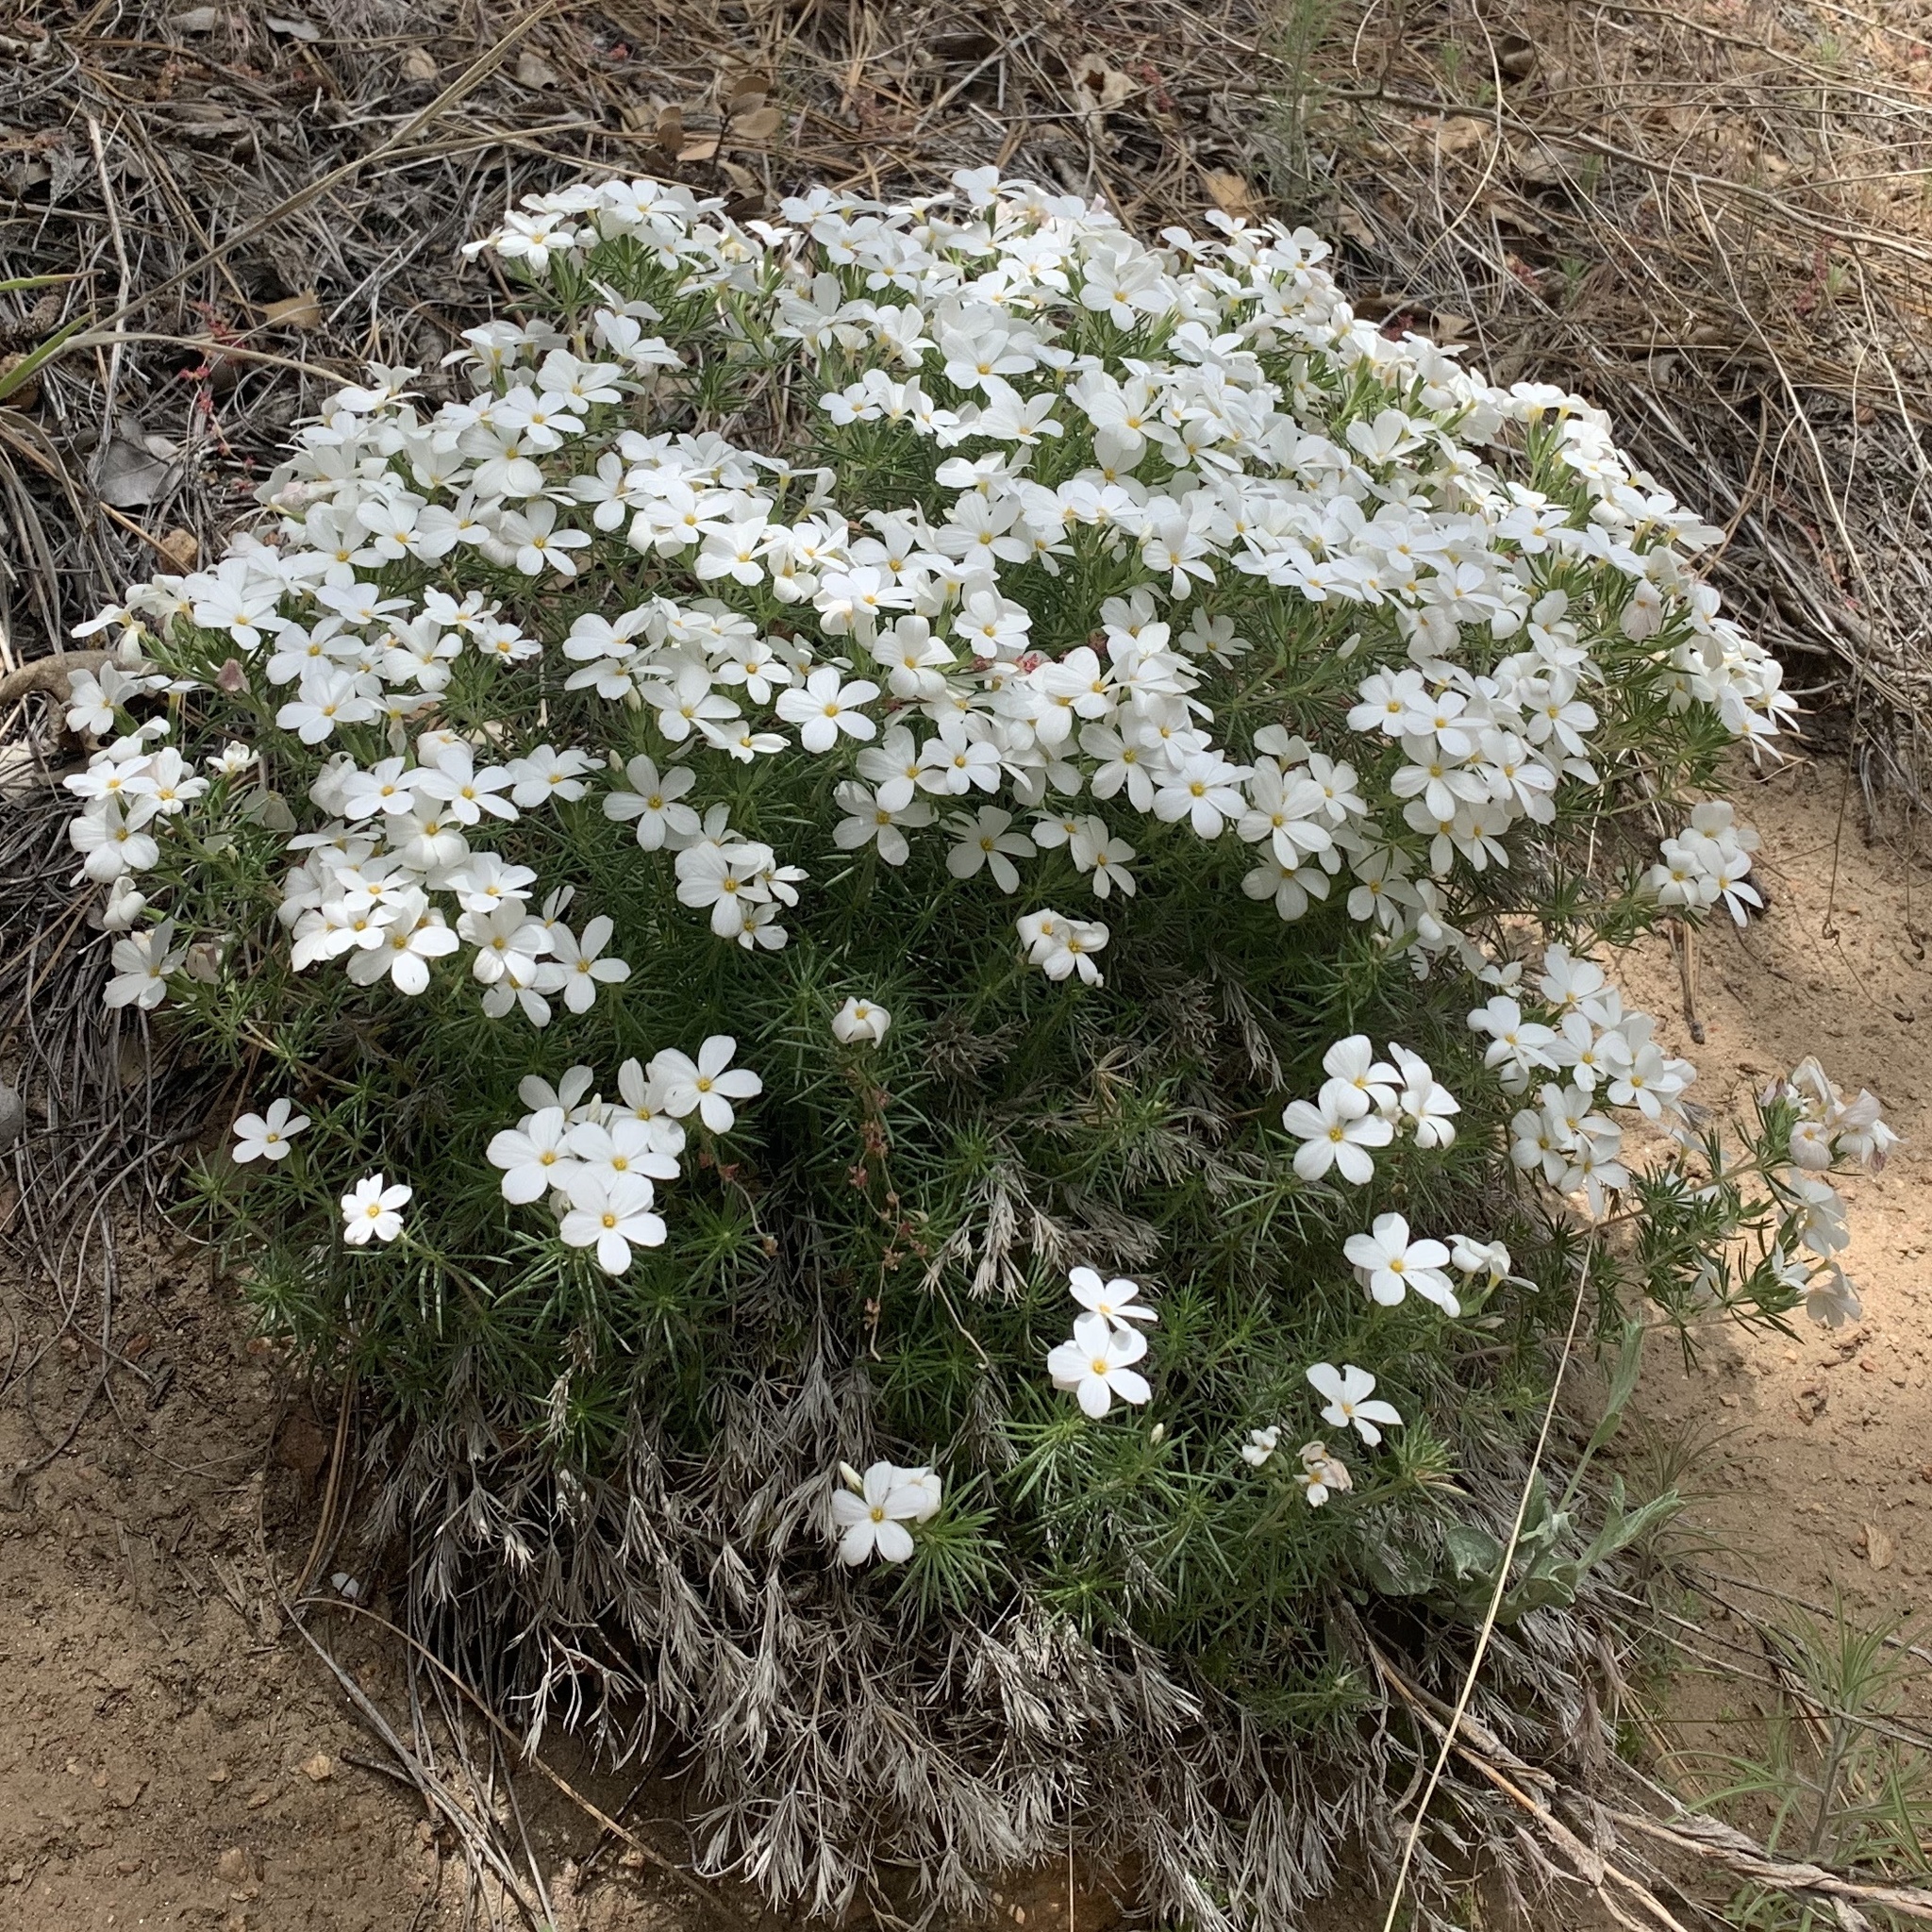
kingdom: Plantae
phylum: Tracheophyta
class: Magnoliopsida
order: Ericales
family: Polemoniaceae
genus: Leptosiphon
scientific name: Leptosiphon floribundum
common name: Many-flower linanthus
